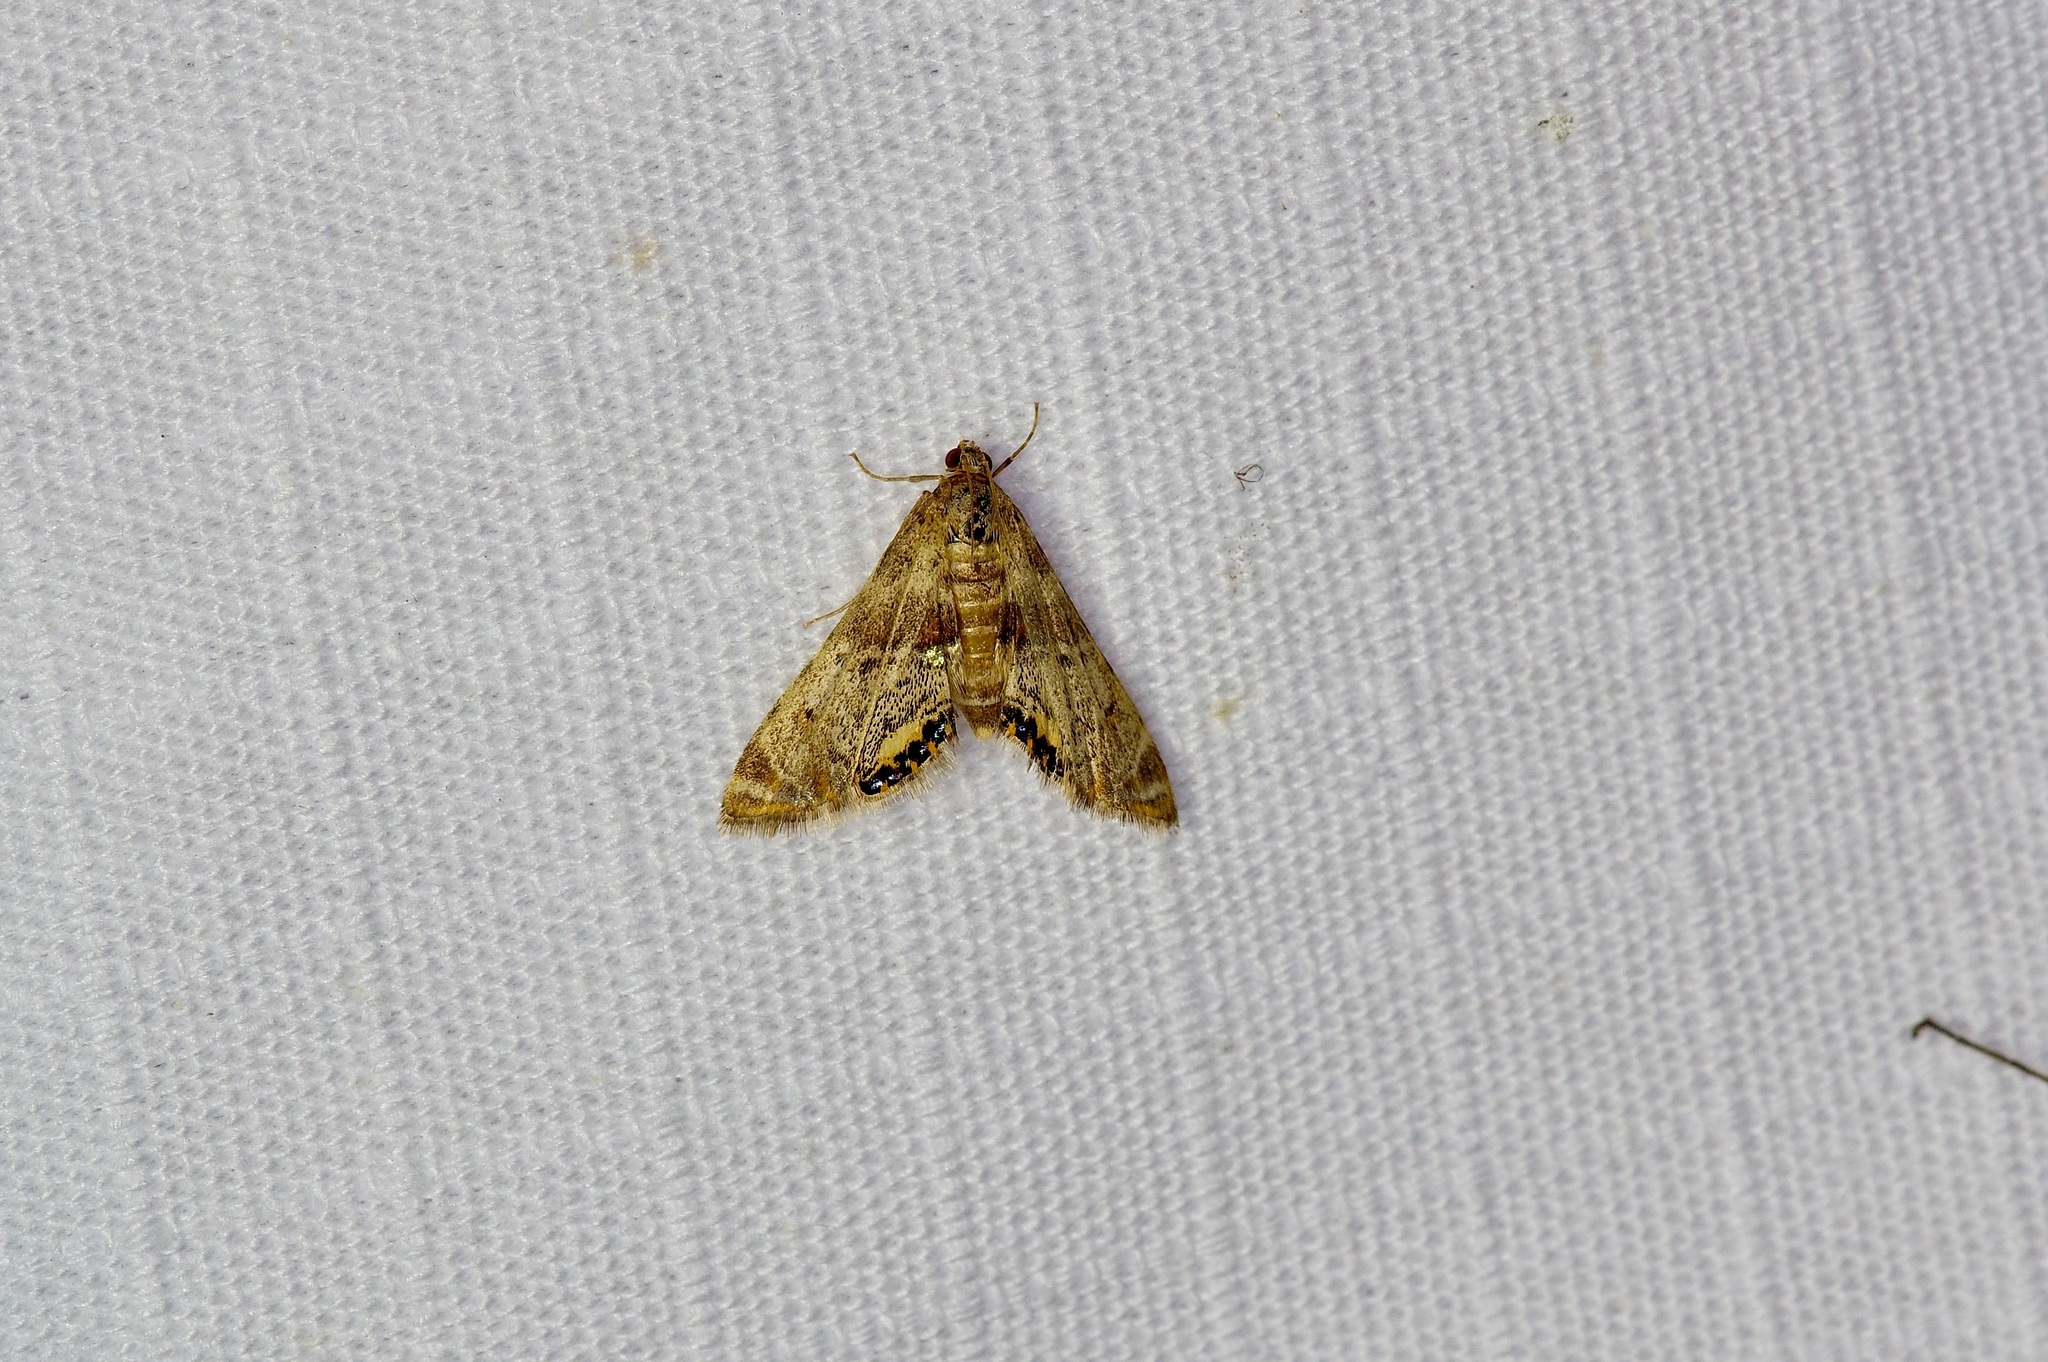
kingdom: Animalia
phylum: Arthropoda
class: Insecta
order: Lepidoptera
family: Crambidae
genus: Petrophila
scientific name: Petrophila fulicalis
